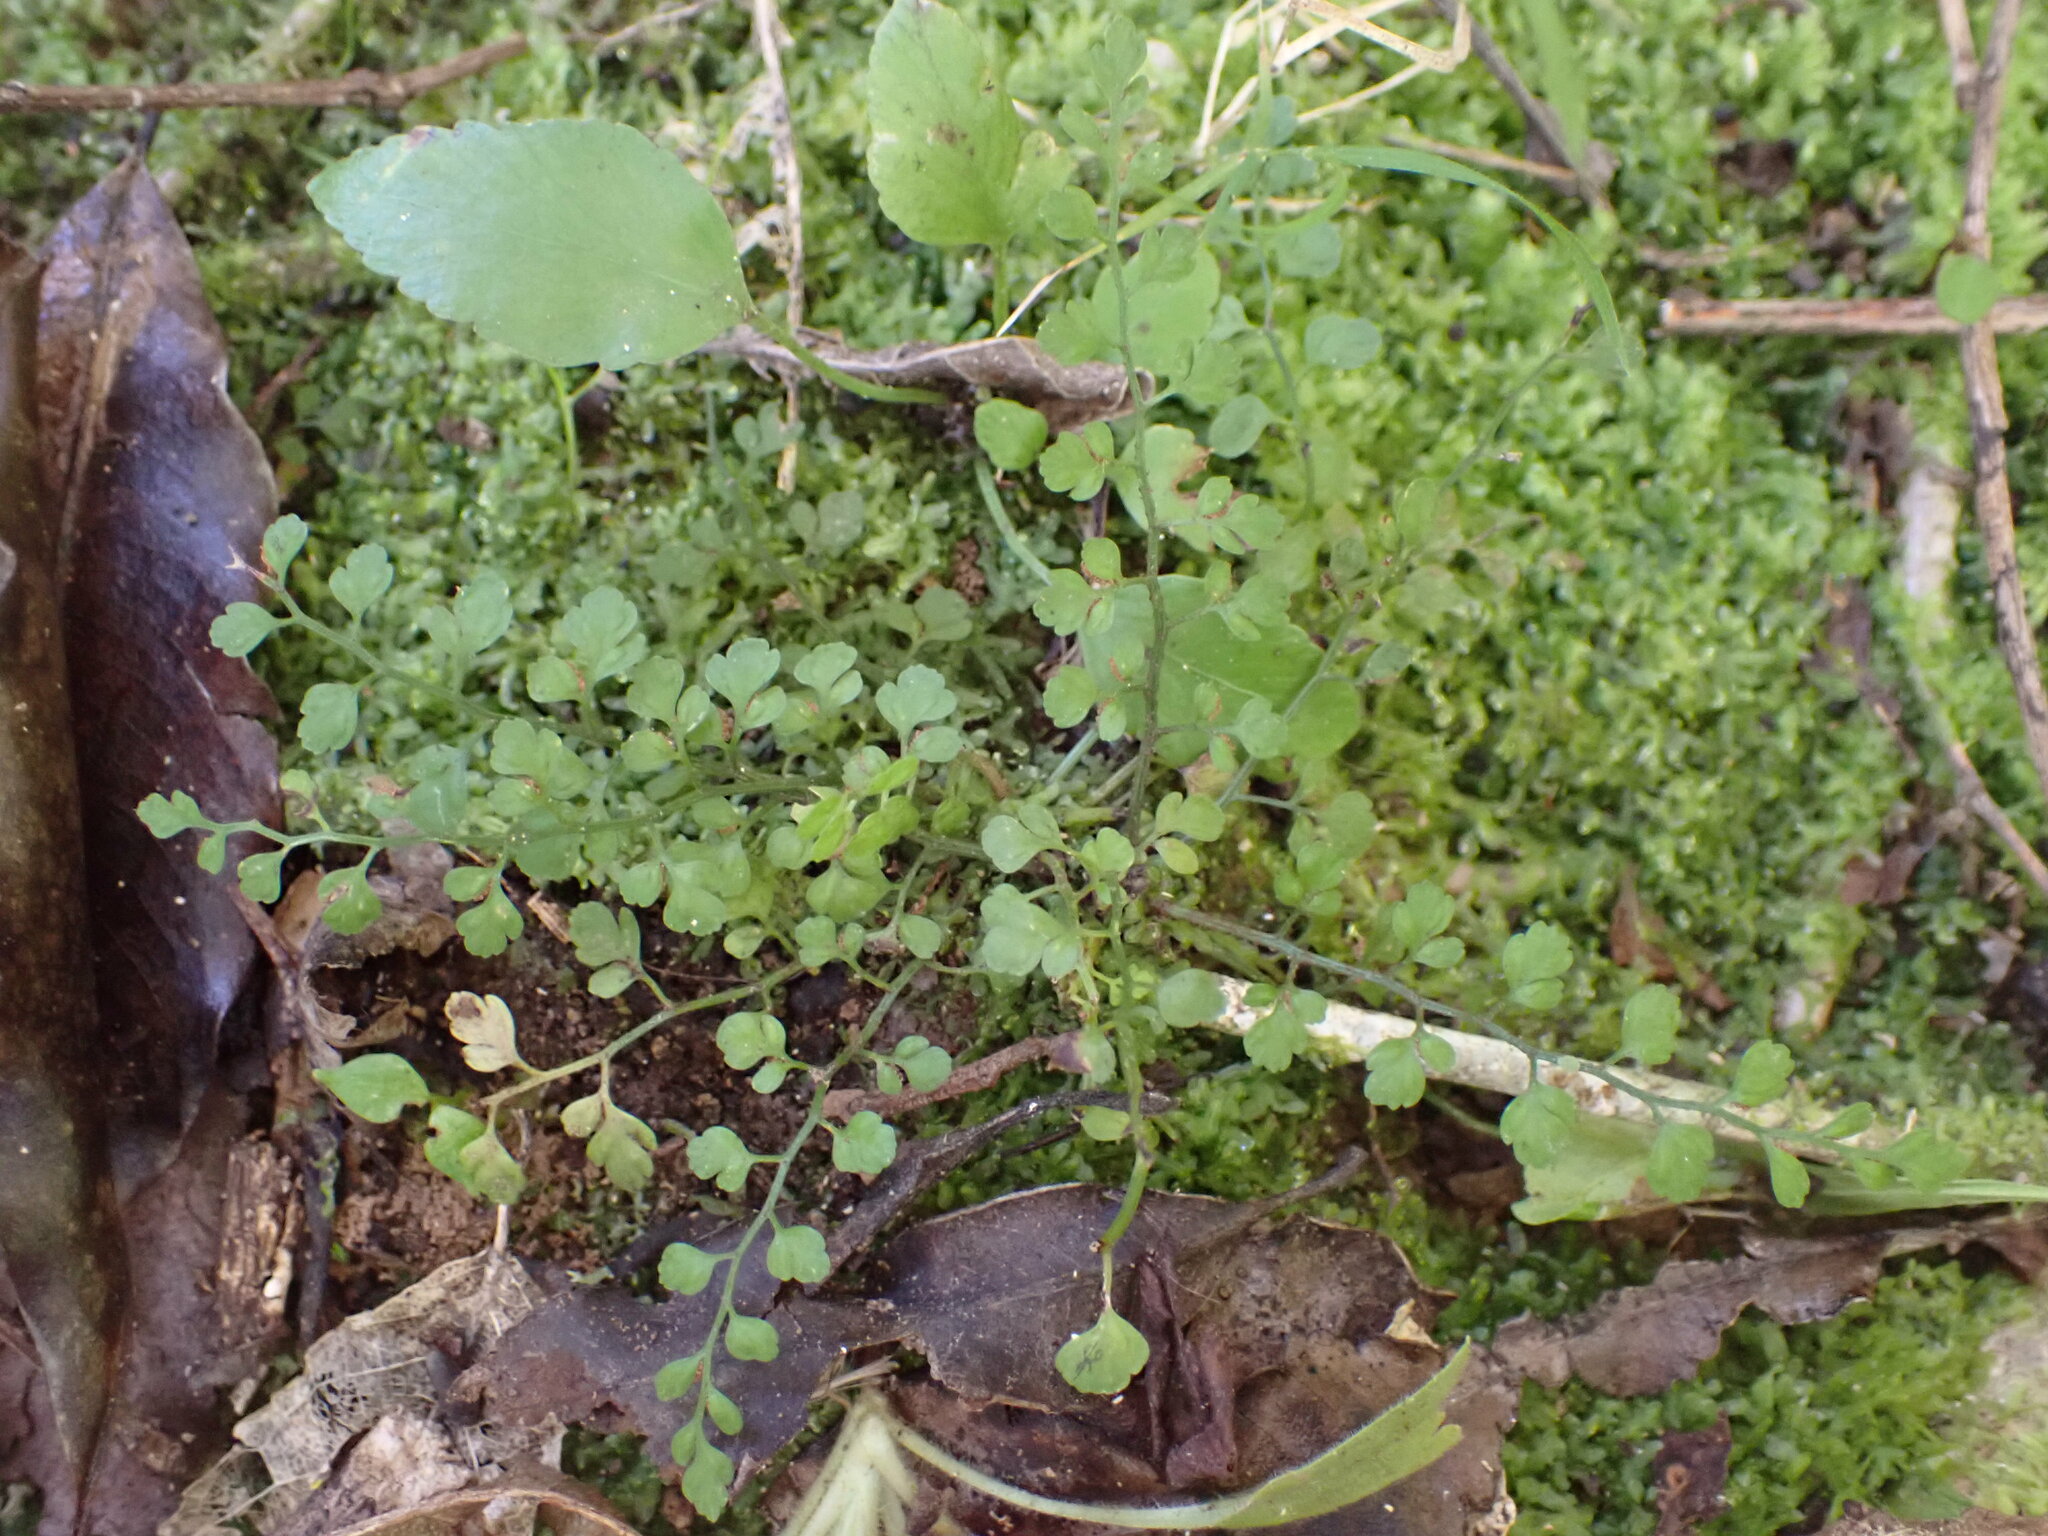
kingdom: Plantae
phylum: Tracheophyta
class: Polypodiopsida
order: Polypodiales
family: Aspleniaceae
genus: Asplenium
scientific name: Asplenium hookerianum
